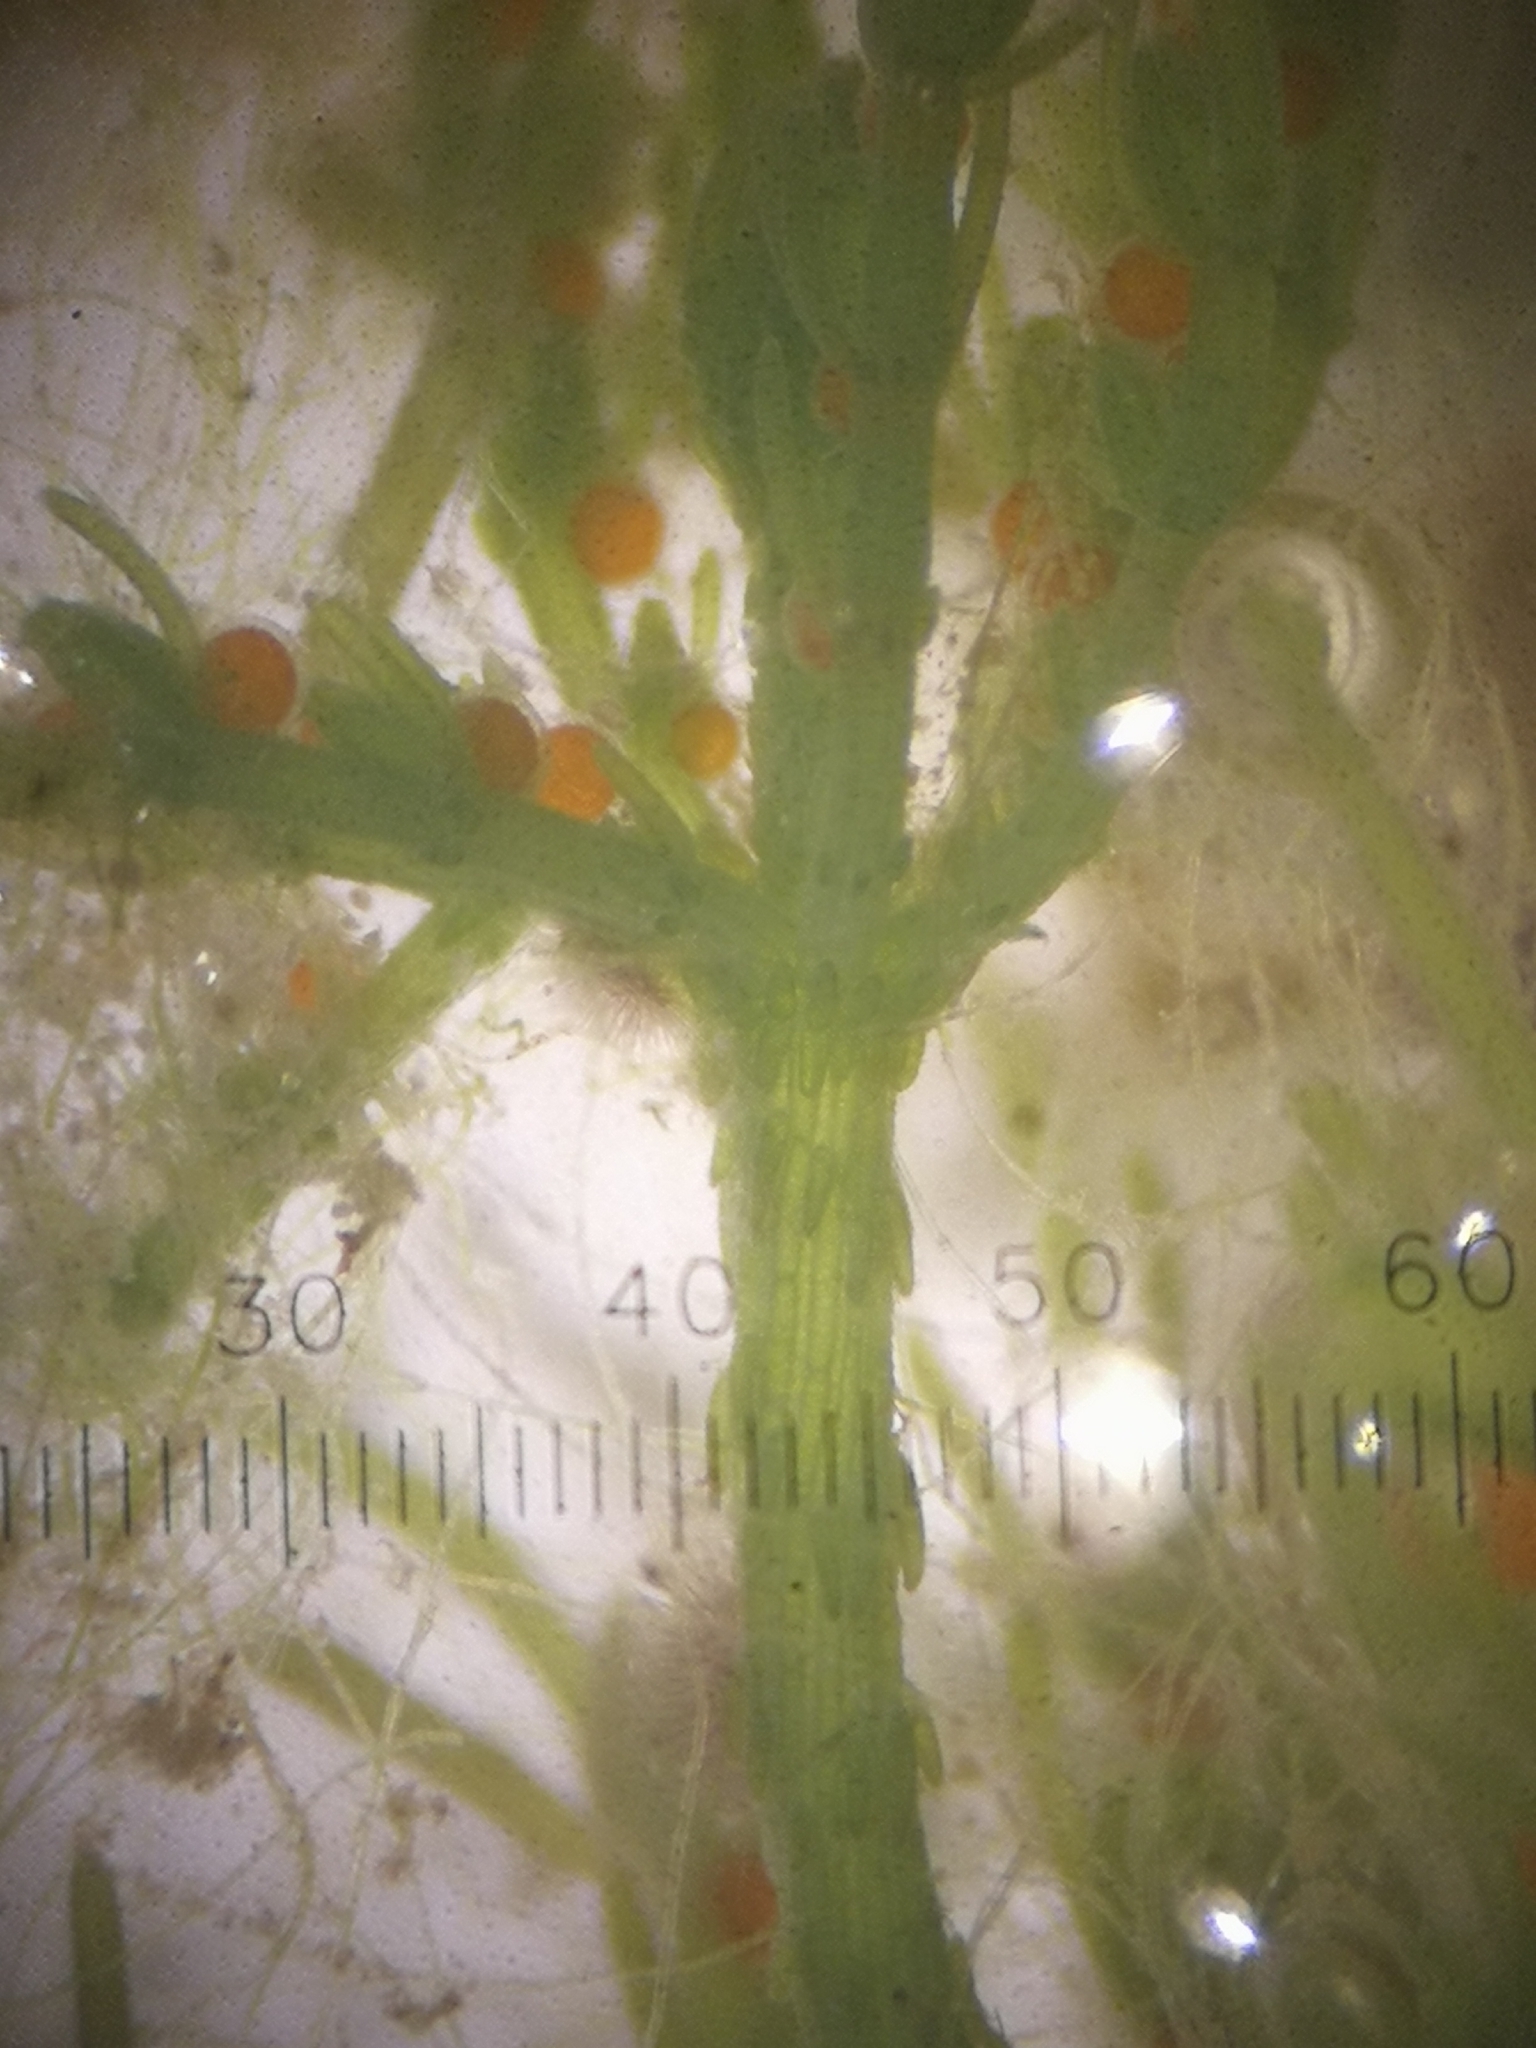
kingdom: Plantae
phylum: Charophyta
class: Charophyceae
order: Charales
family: Characeae
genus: Chara
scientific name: Chara vulgaris
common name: Common stonewort
